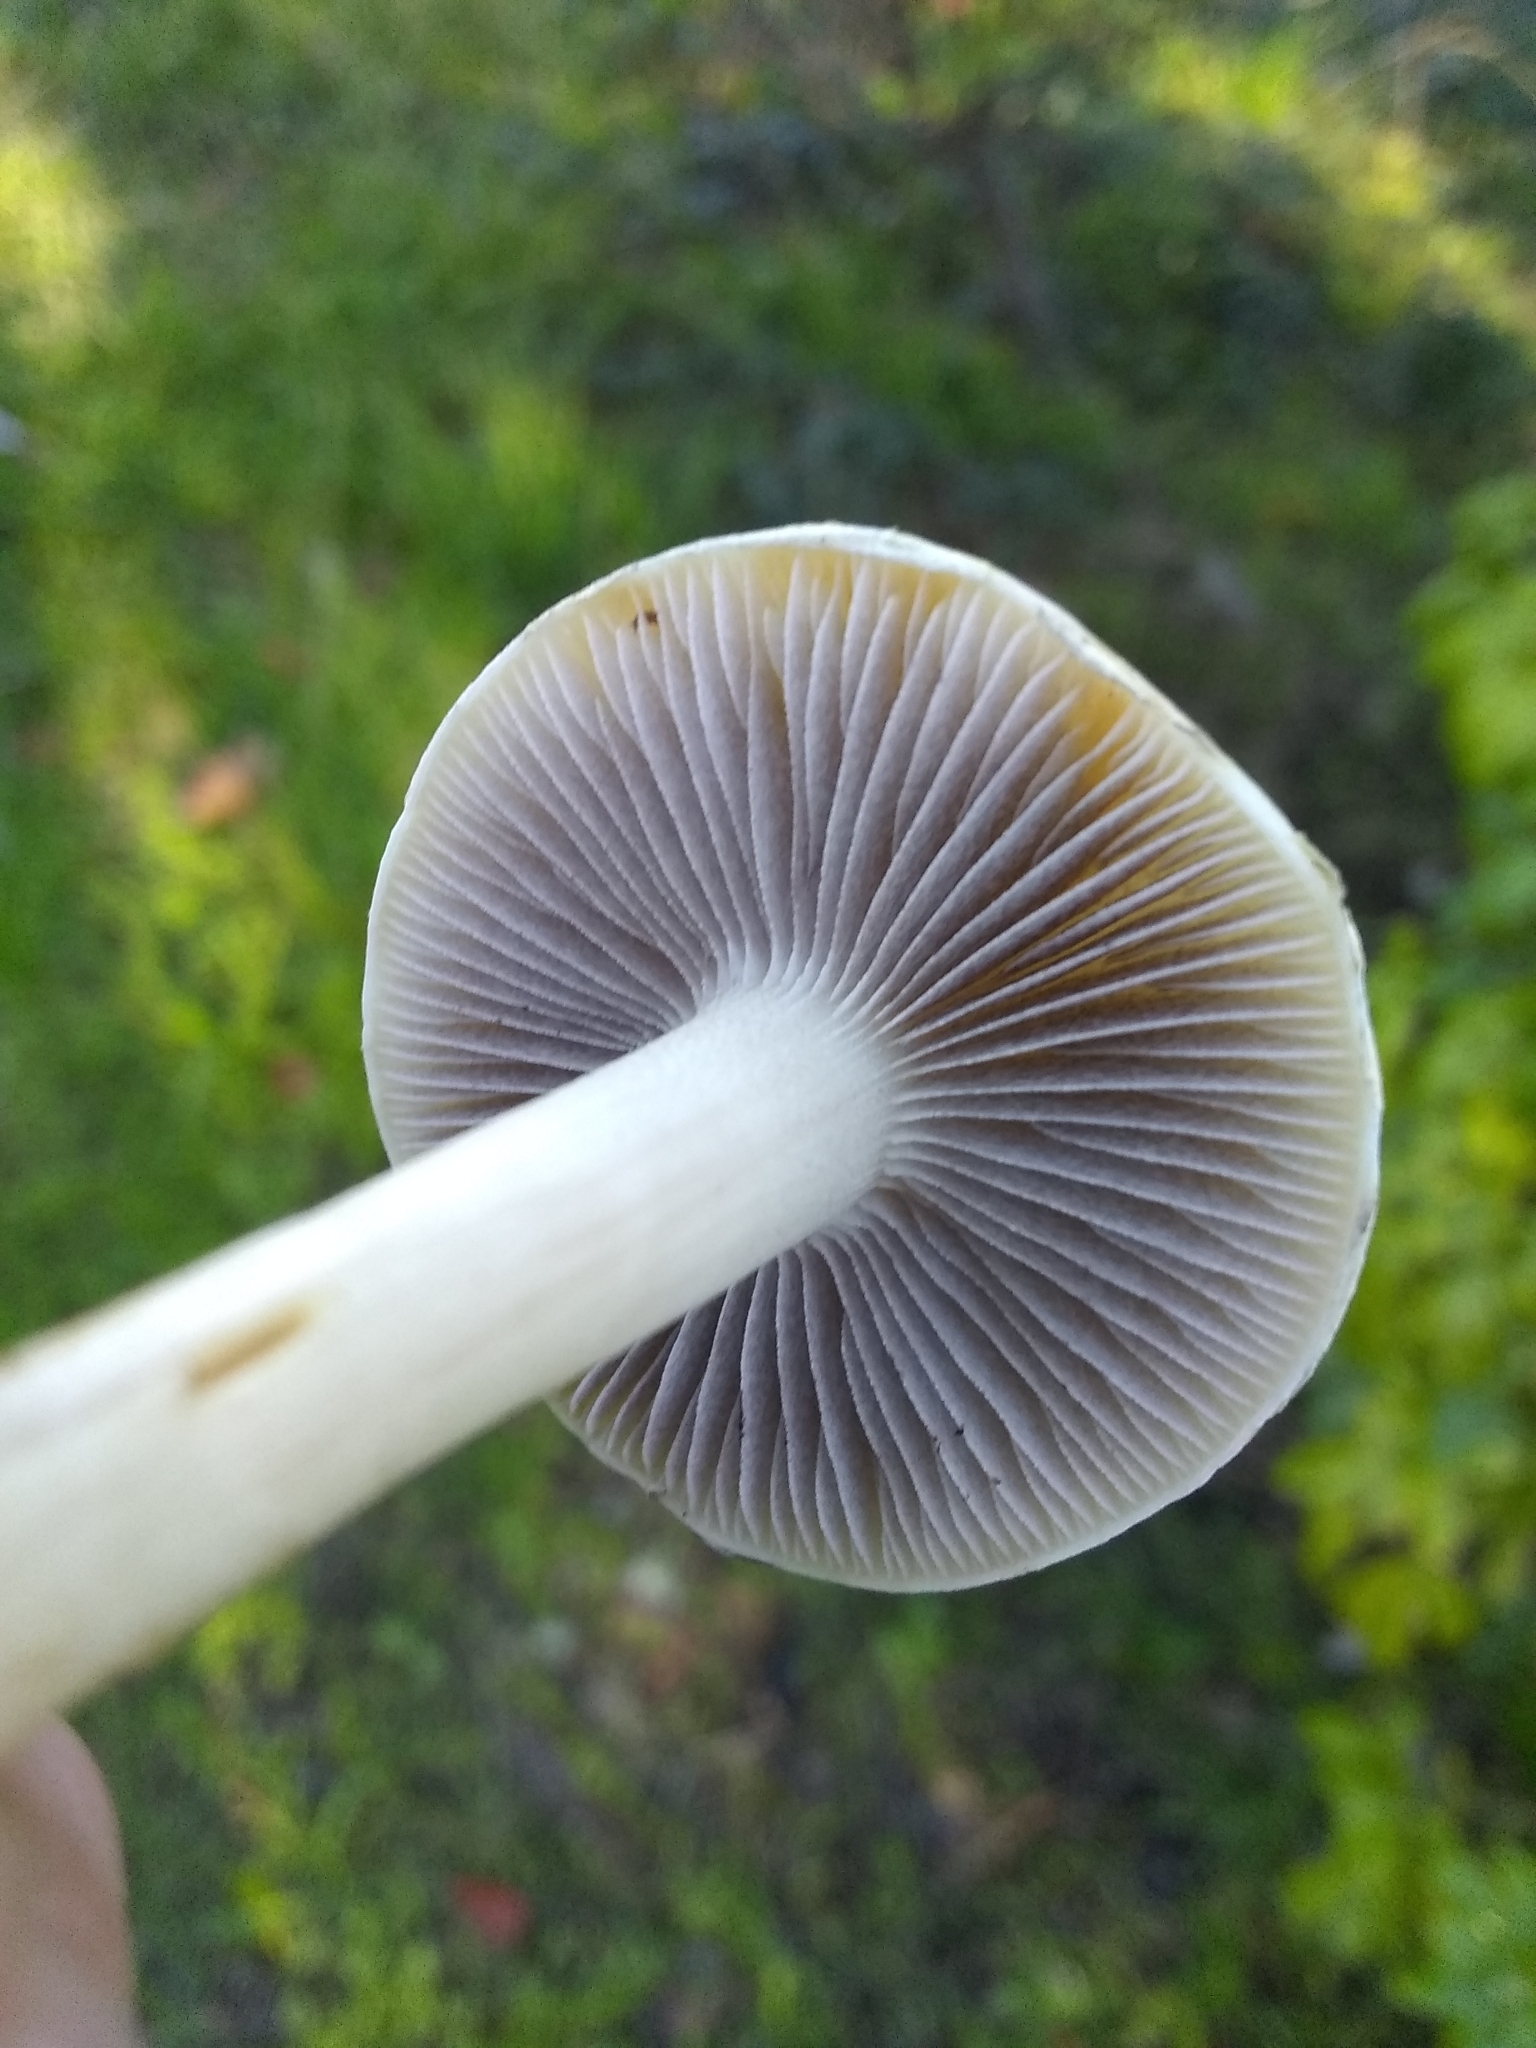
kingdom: Fungi
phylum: Basidiomycota
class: Agaricomycetes
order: Agaricales
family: Strophariaceae
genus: Leratiomyces
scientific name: Leratiomyces percevalii
